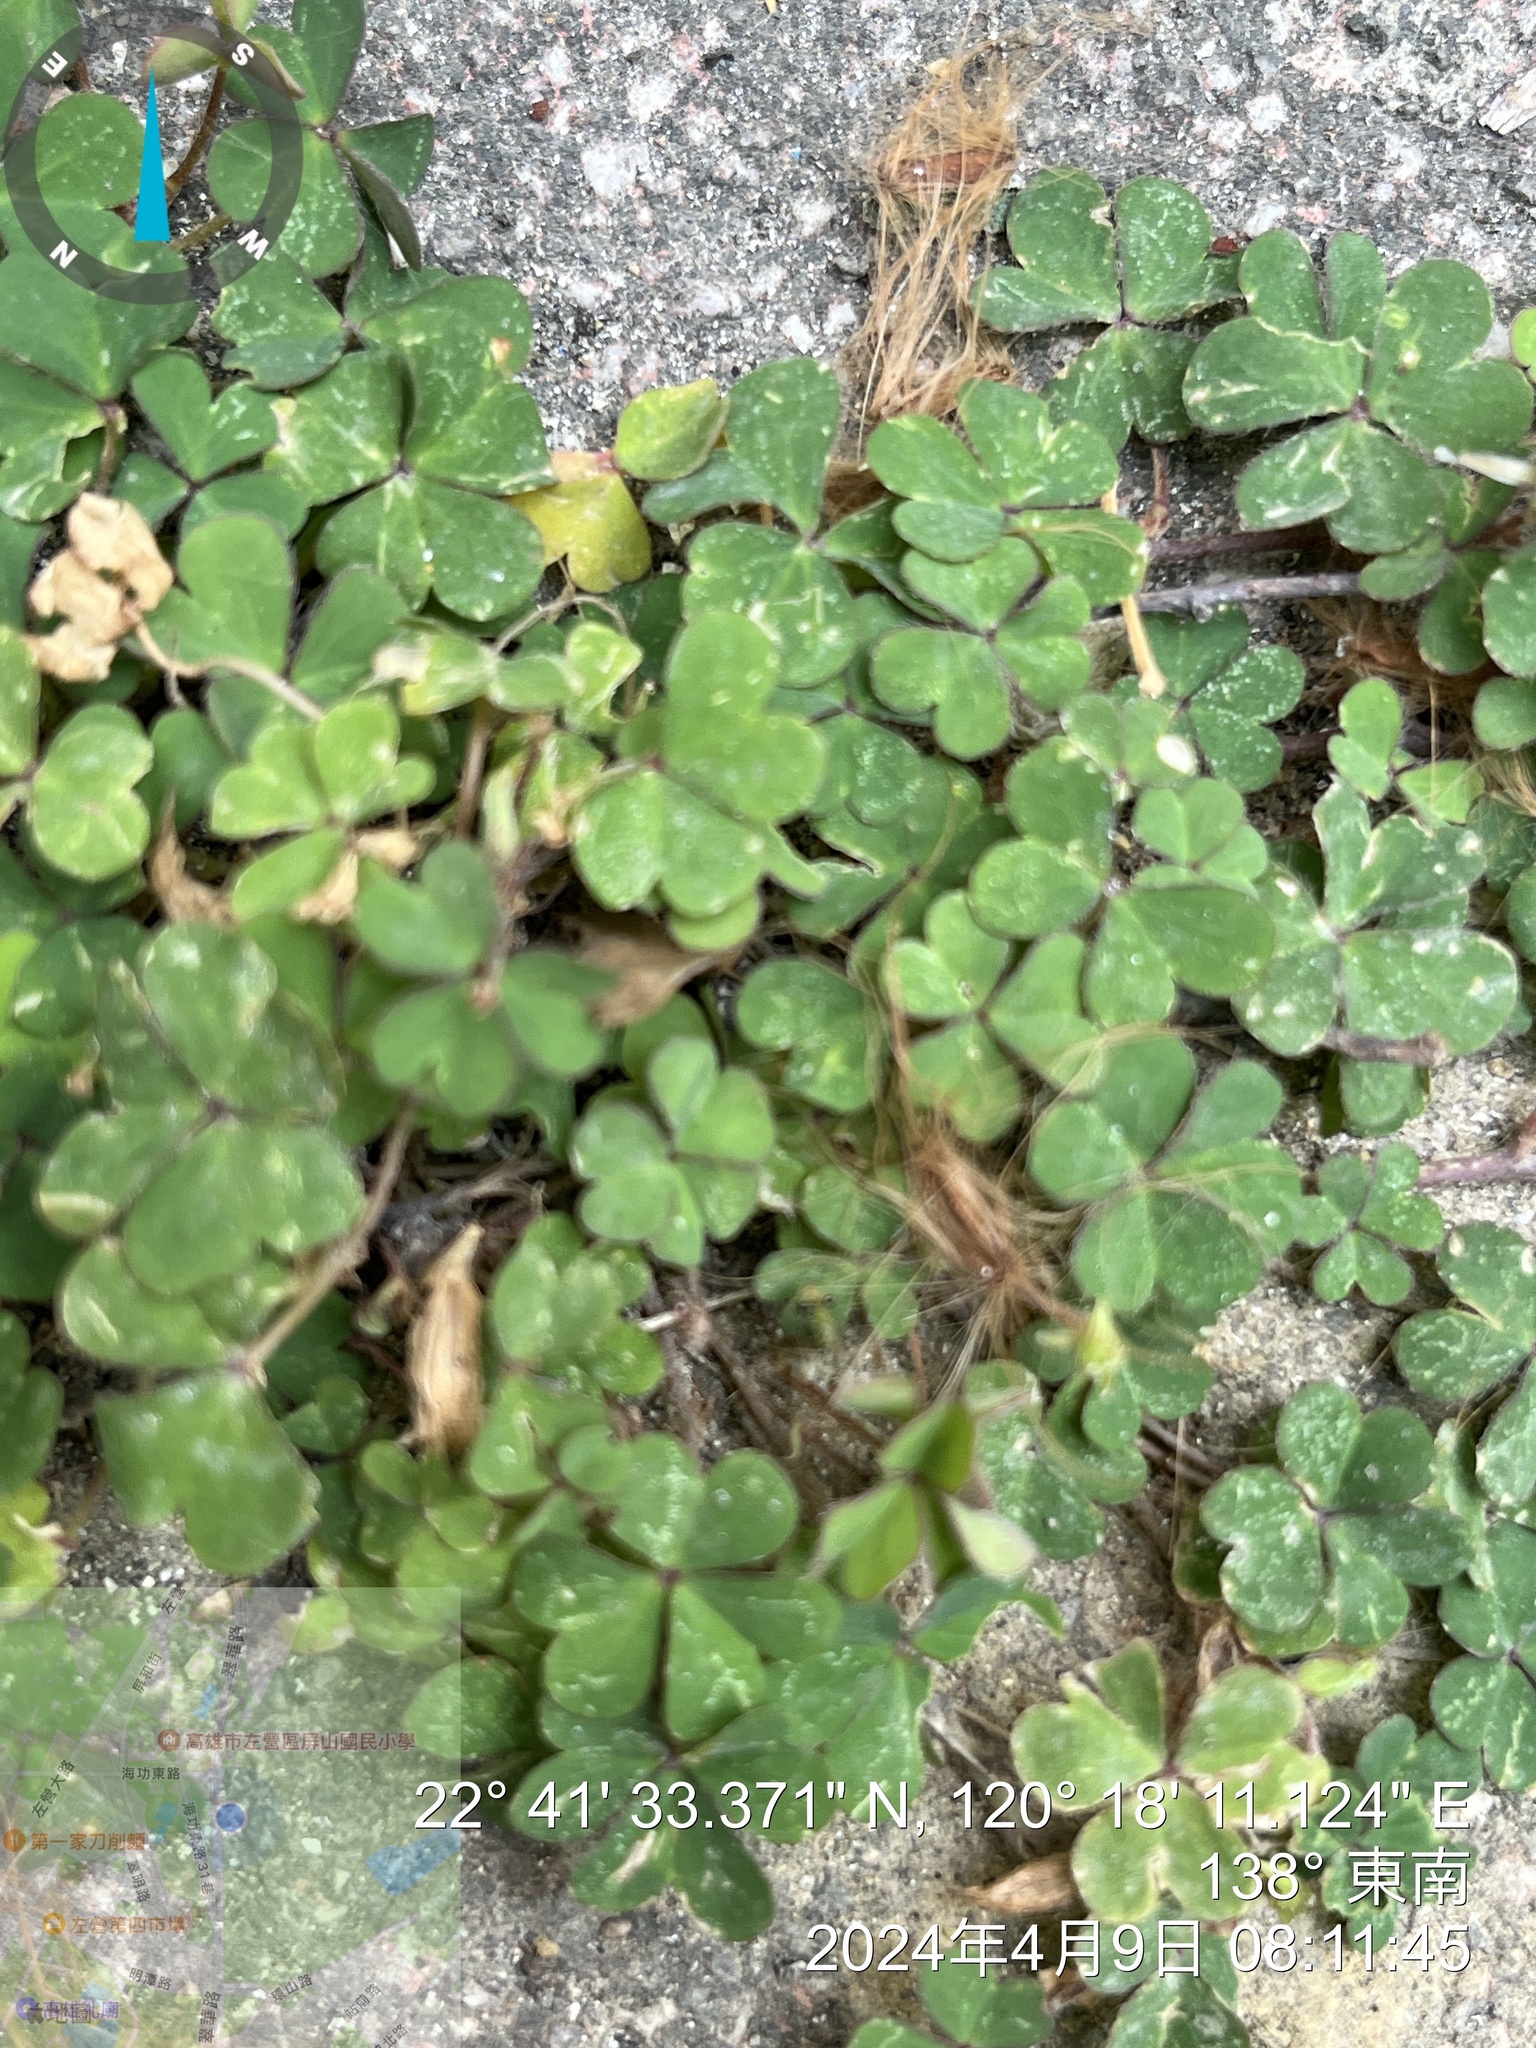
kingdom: Plantae
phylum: Tracheophyta
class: Magnoliopsida
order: Oxalidales
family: Oxalidaceae
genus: Oxalis
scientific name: Oxalis corniculata
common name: Procumbent yellow-sorrel
